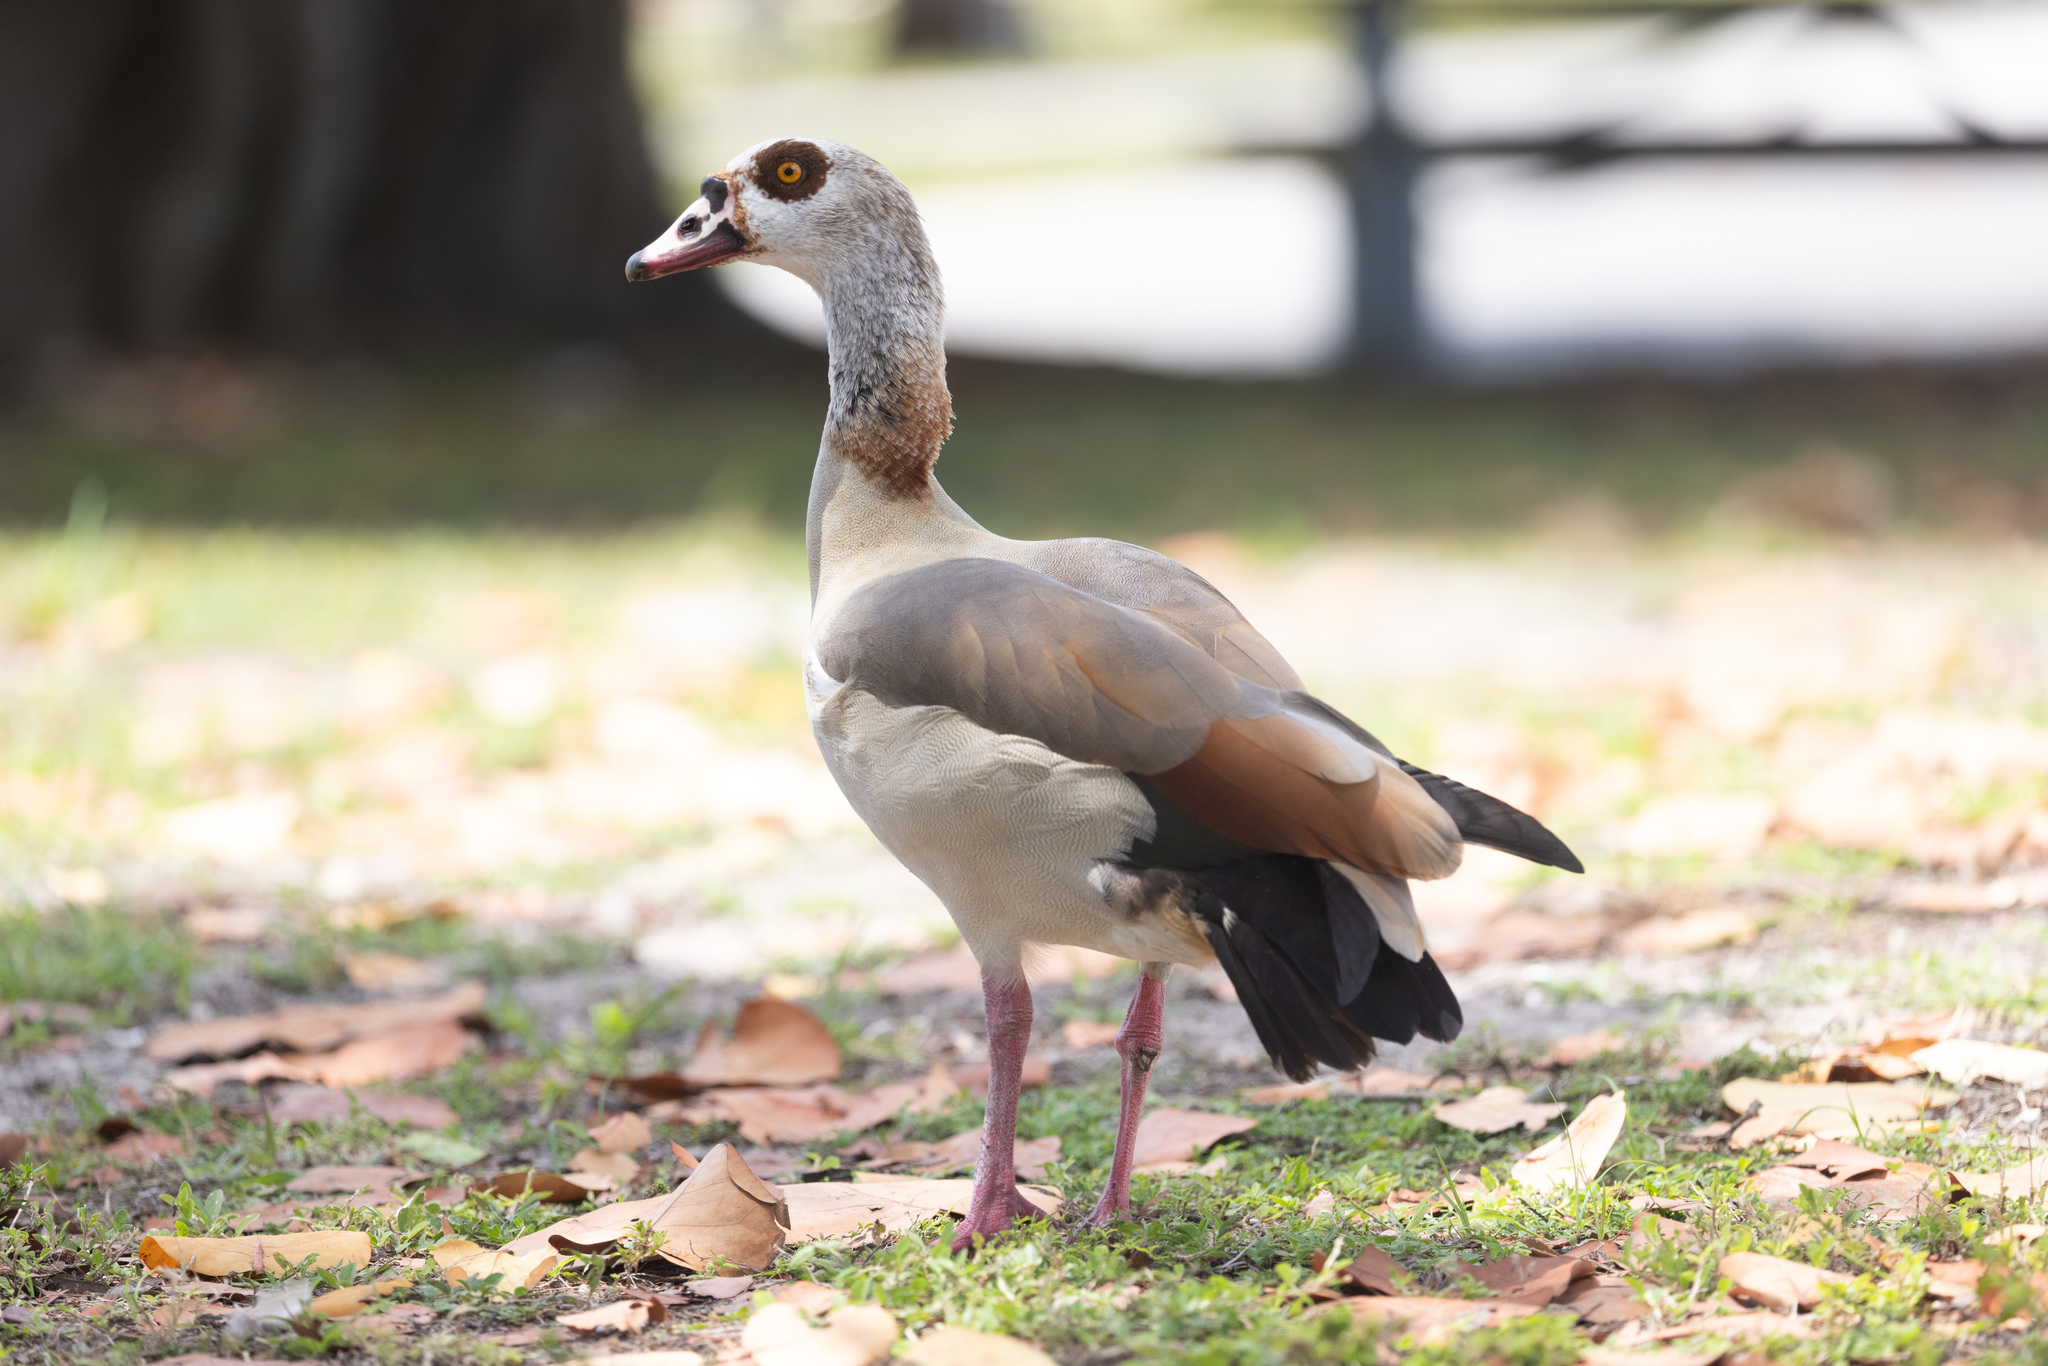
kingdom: Animalia
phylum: Chordata
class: Aves
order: Anseriformes
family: Anatidae
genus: Alopochen
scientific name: Alopochen aegyptiaca
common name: Egyptian goose
